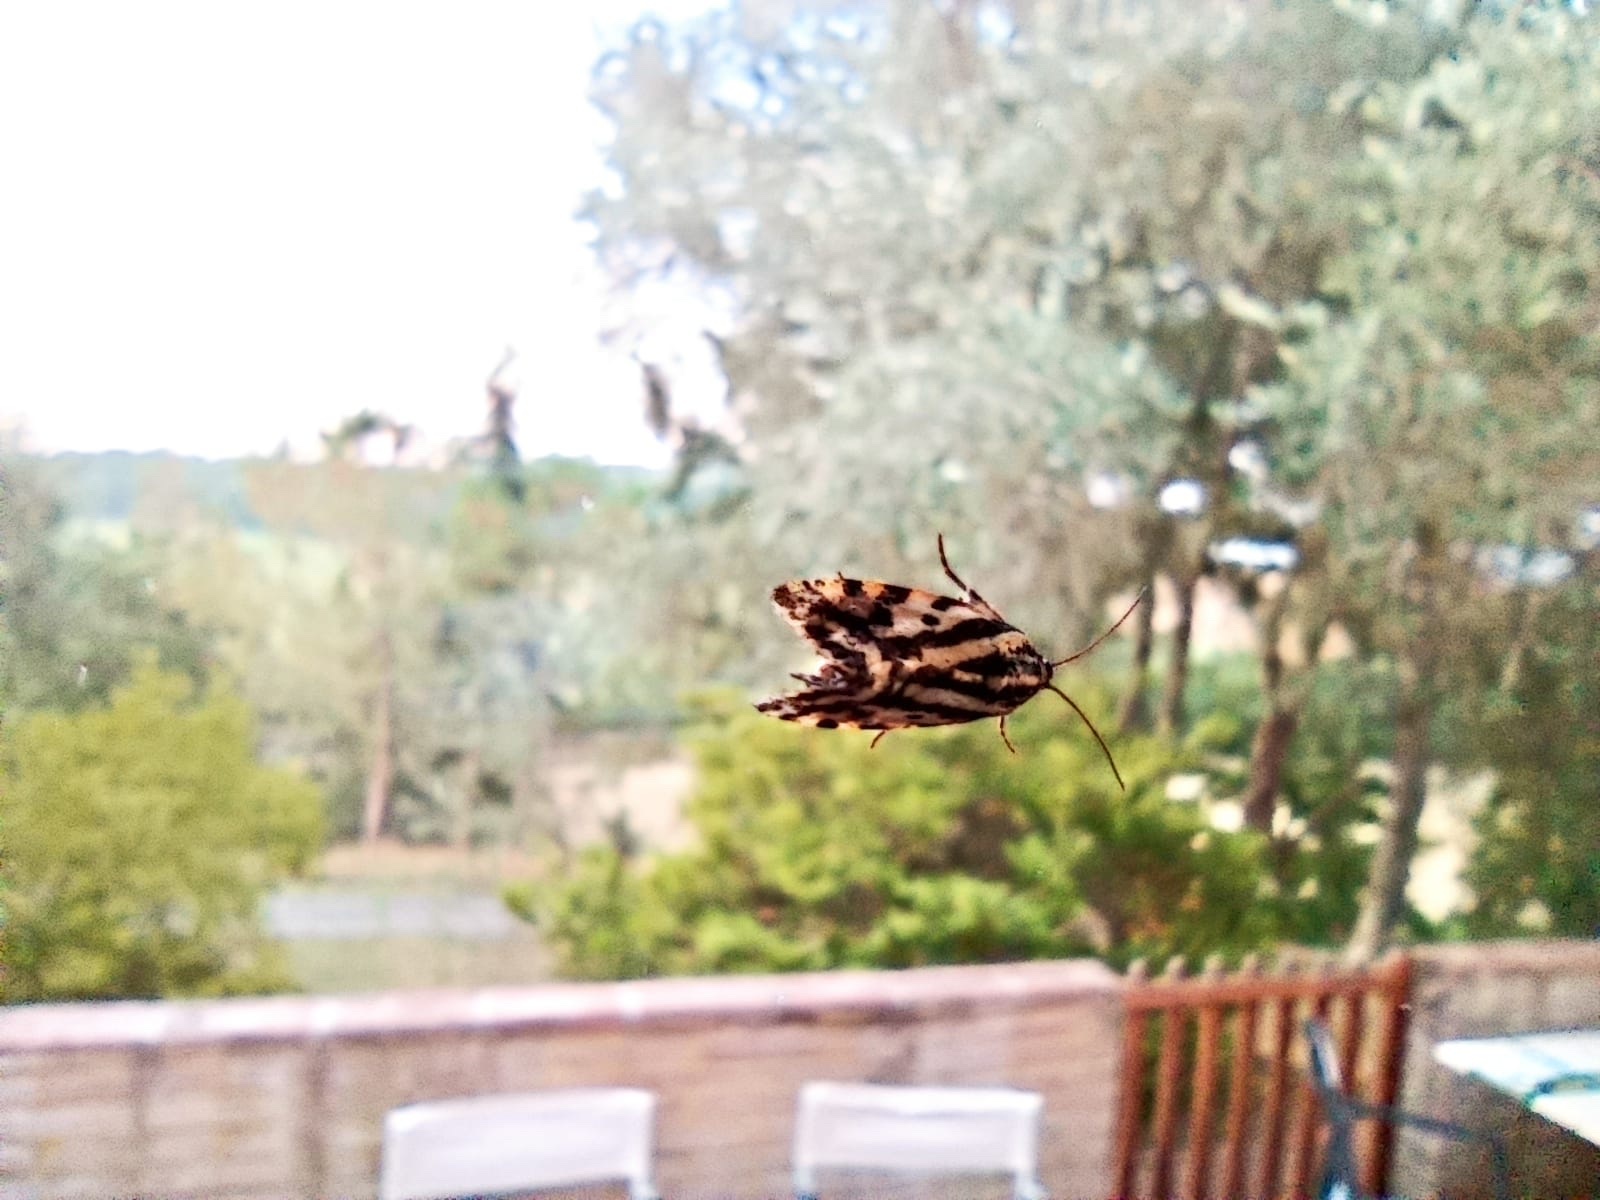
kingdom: Animalia
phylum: Arthropoda
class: Insecta
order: Lepidoptera
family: Noctuidae
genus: Acontia
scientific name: Acontia trabealis
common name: Spotted sulphur
